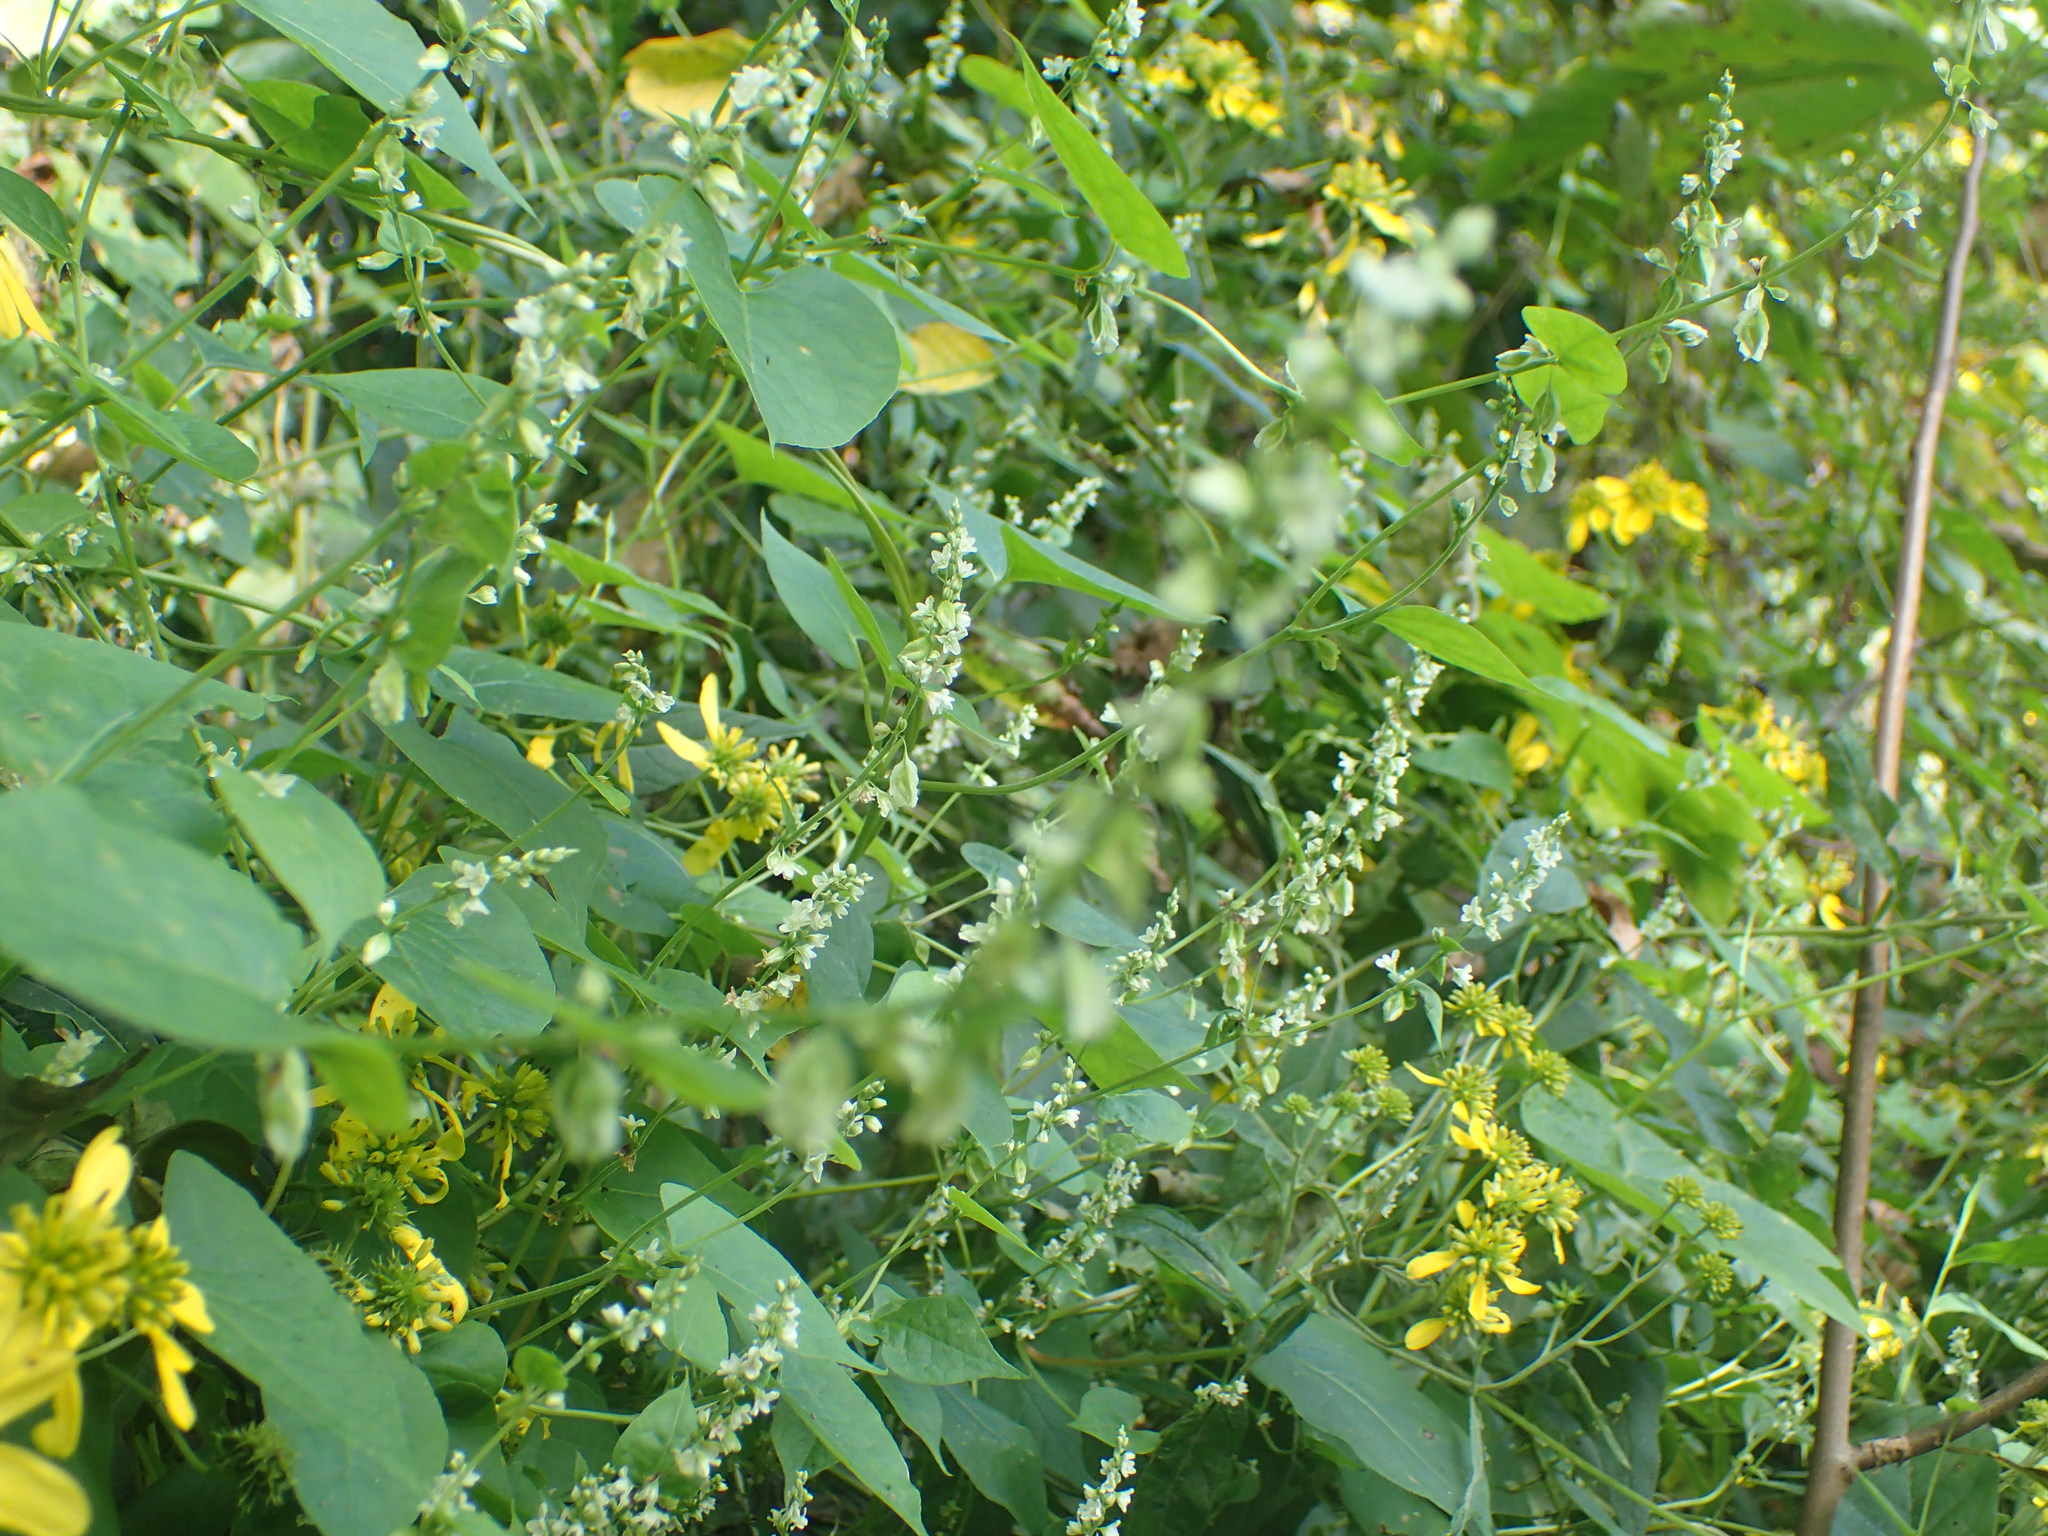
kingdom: Plantae
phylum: Tracheophyta
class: Magnoliopsida
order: Fabales
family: Fabaceae
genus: Melilotus
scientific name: Melilotus albus
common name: White melilot
